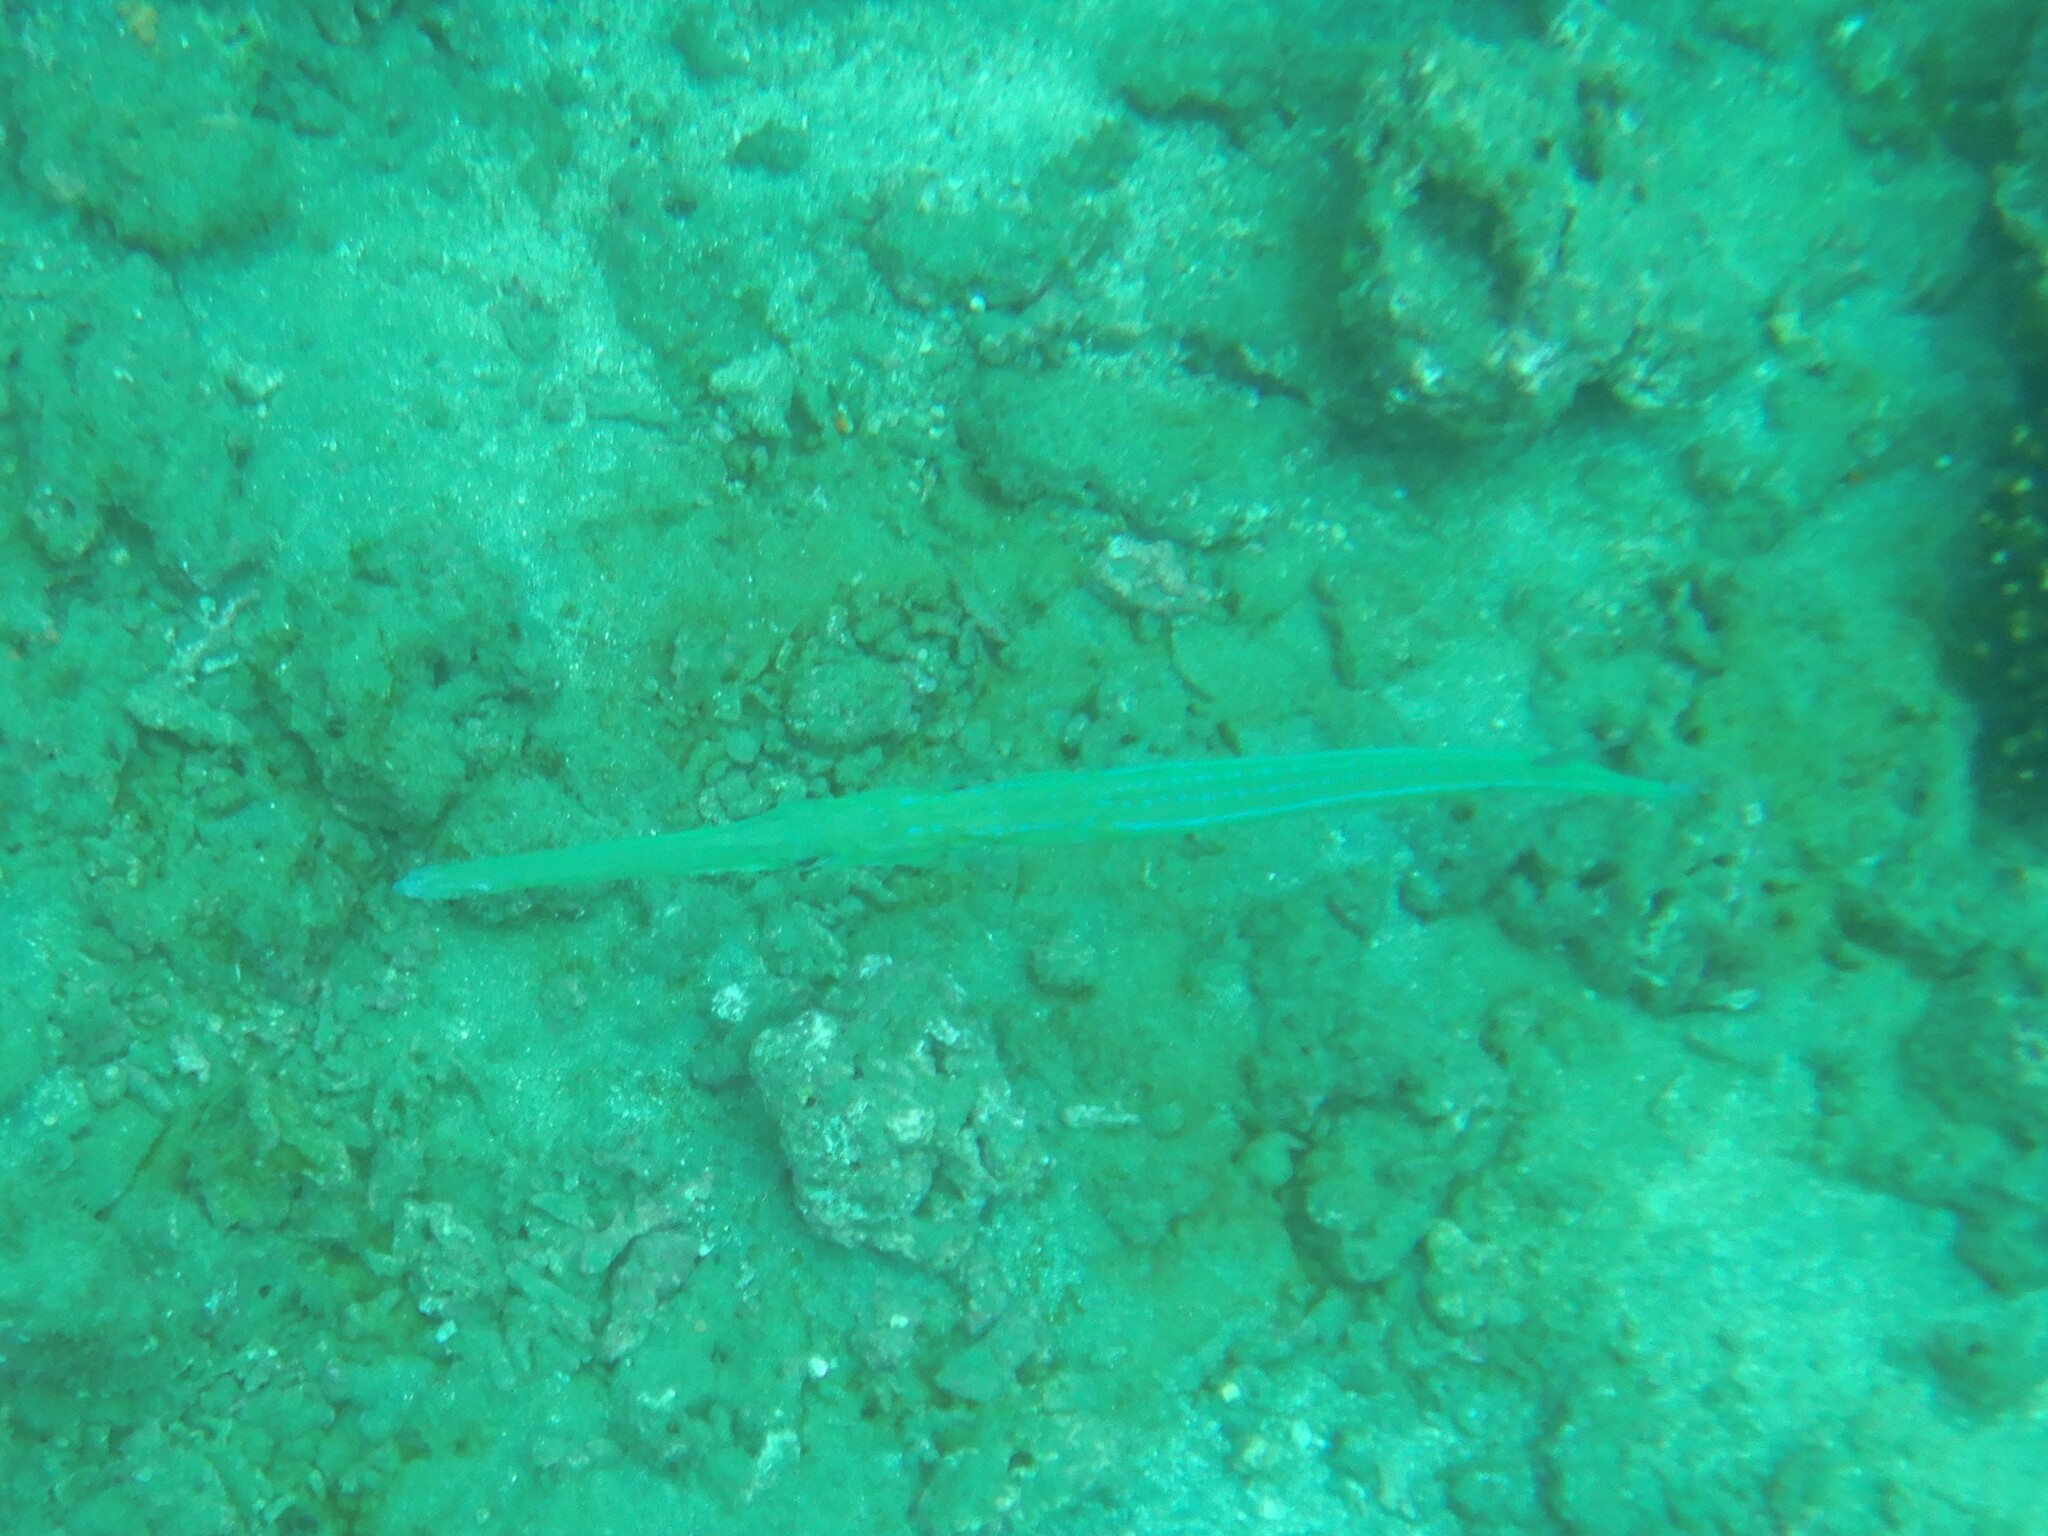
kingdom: Animalia
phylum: Chordata
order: Syngnathiformes
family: Fistulariidae
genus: Fistularia
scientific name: Fistularia commersonii
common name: Bluespotted cornetfish
